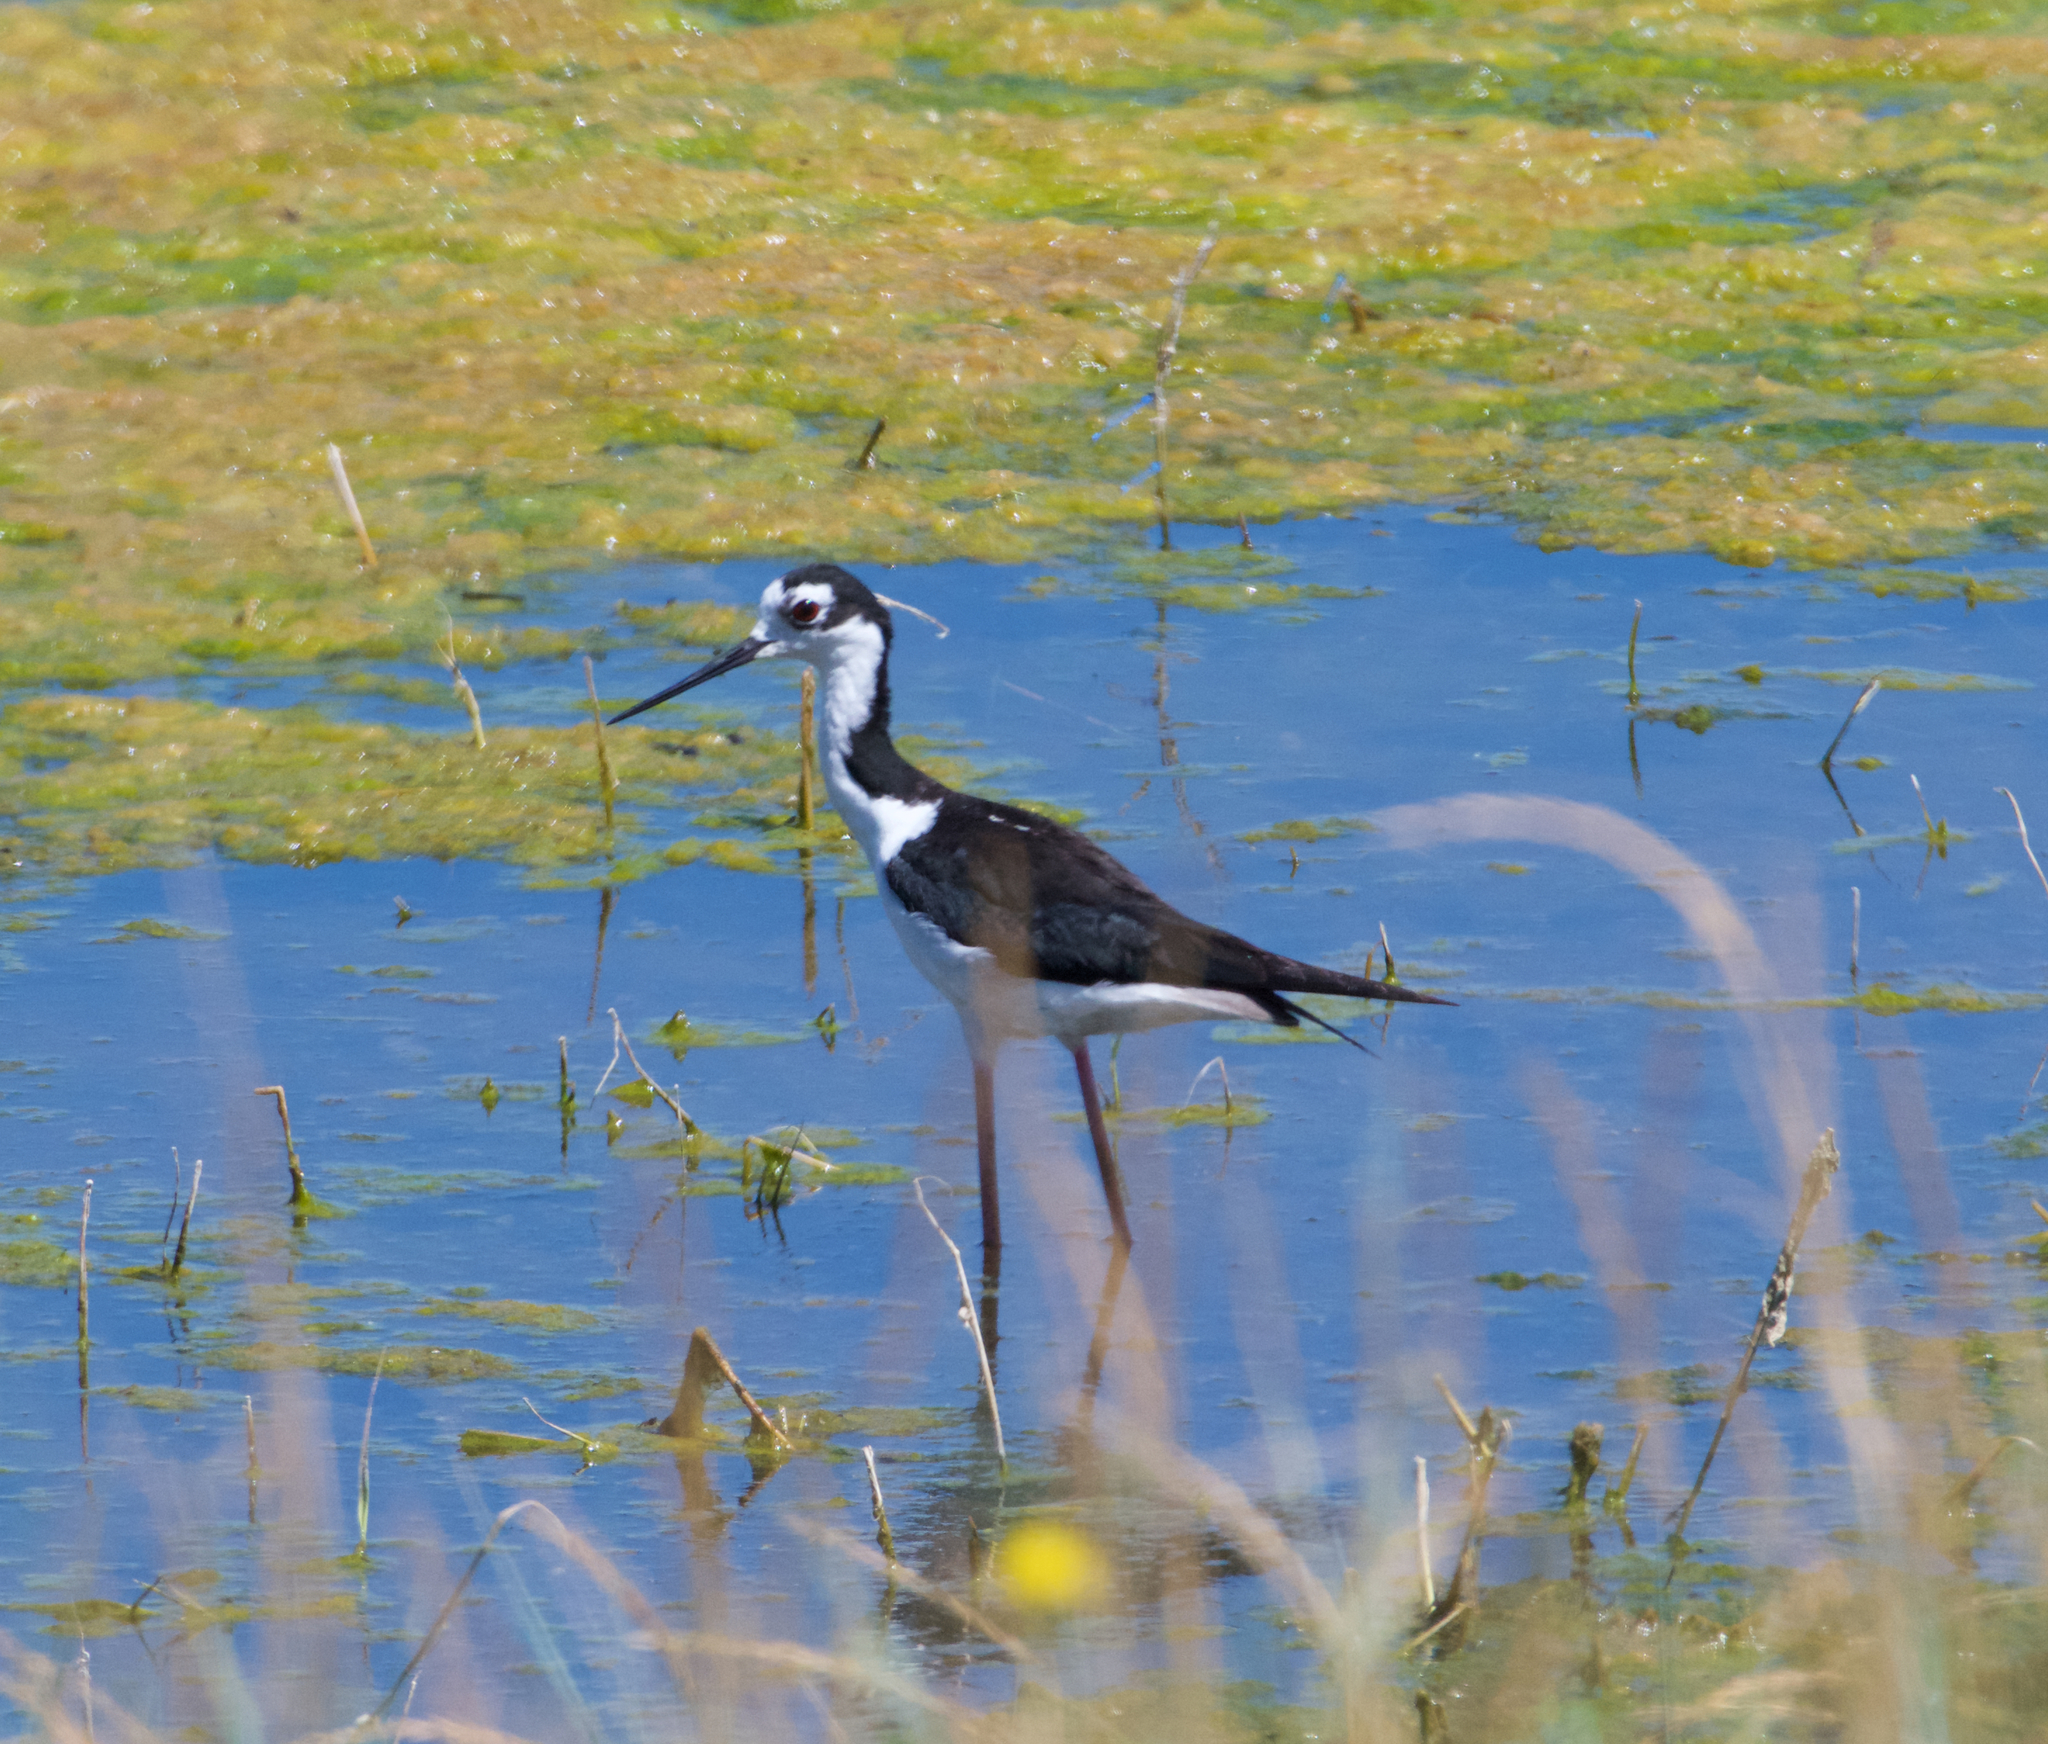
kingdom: Animalia
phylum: Chordata
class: Aves
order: Charadriiformes
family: Recurvirostridae
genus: Himantopus
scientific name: Himantopus mexicanus
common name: Black-necked stilt
